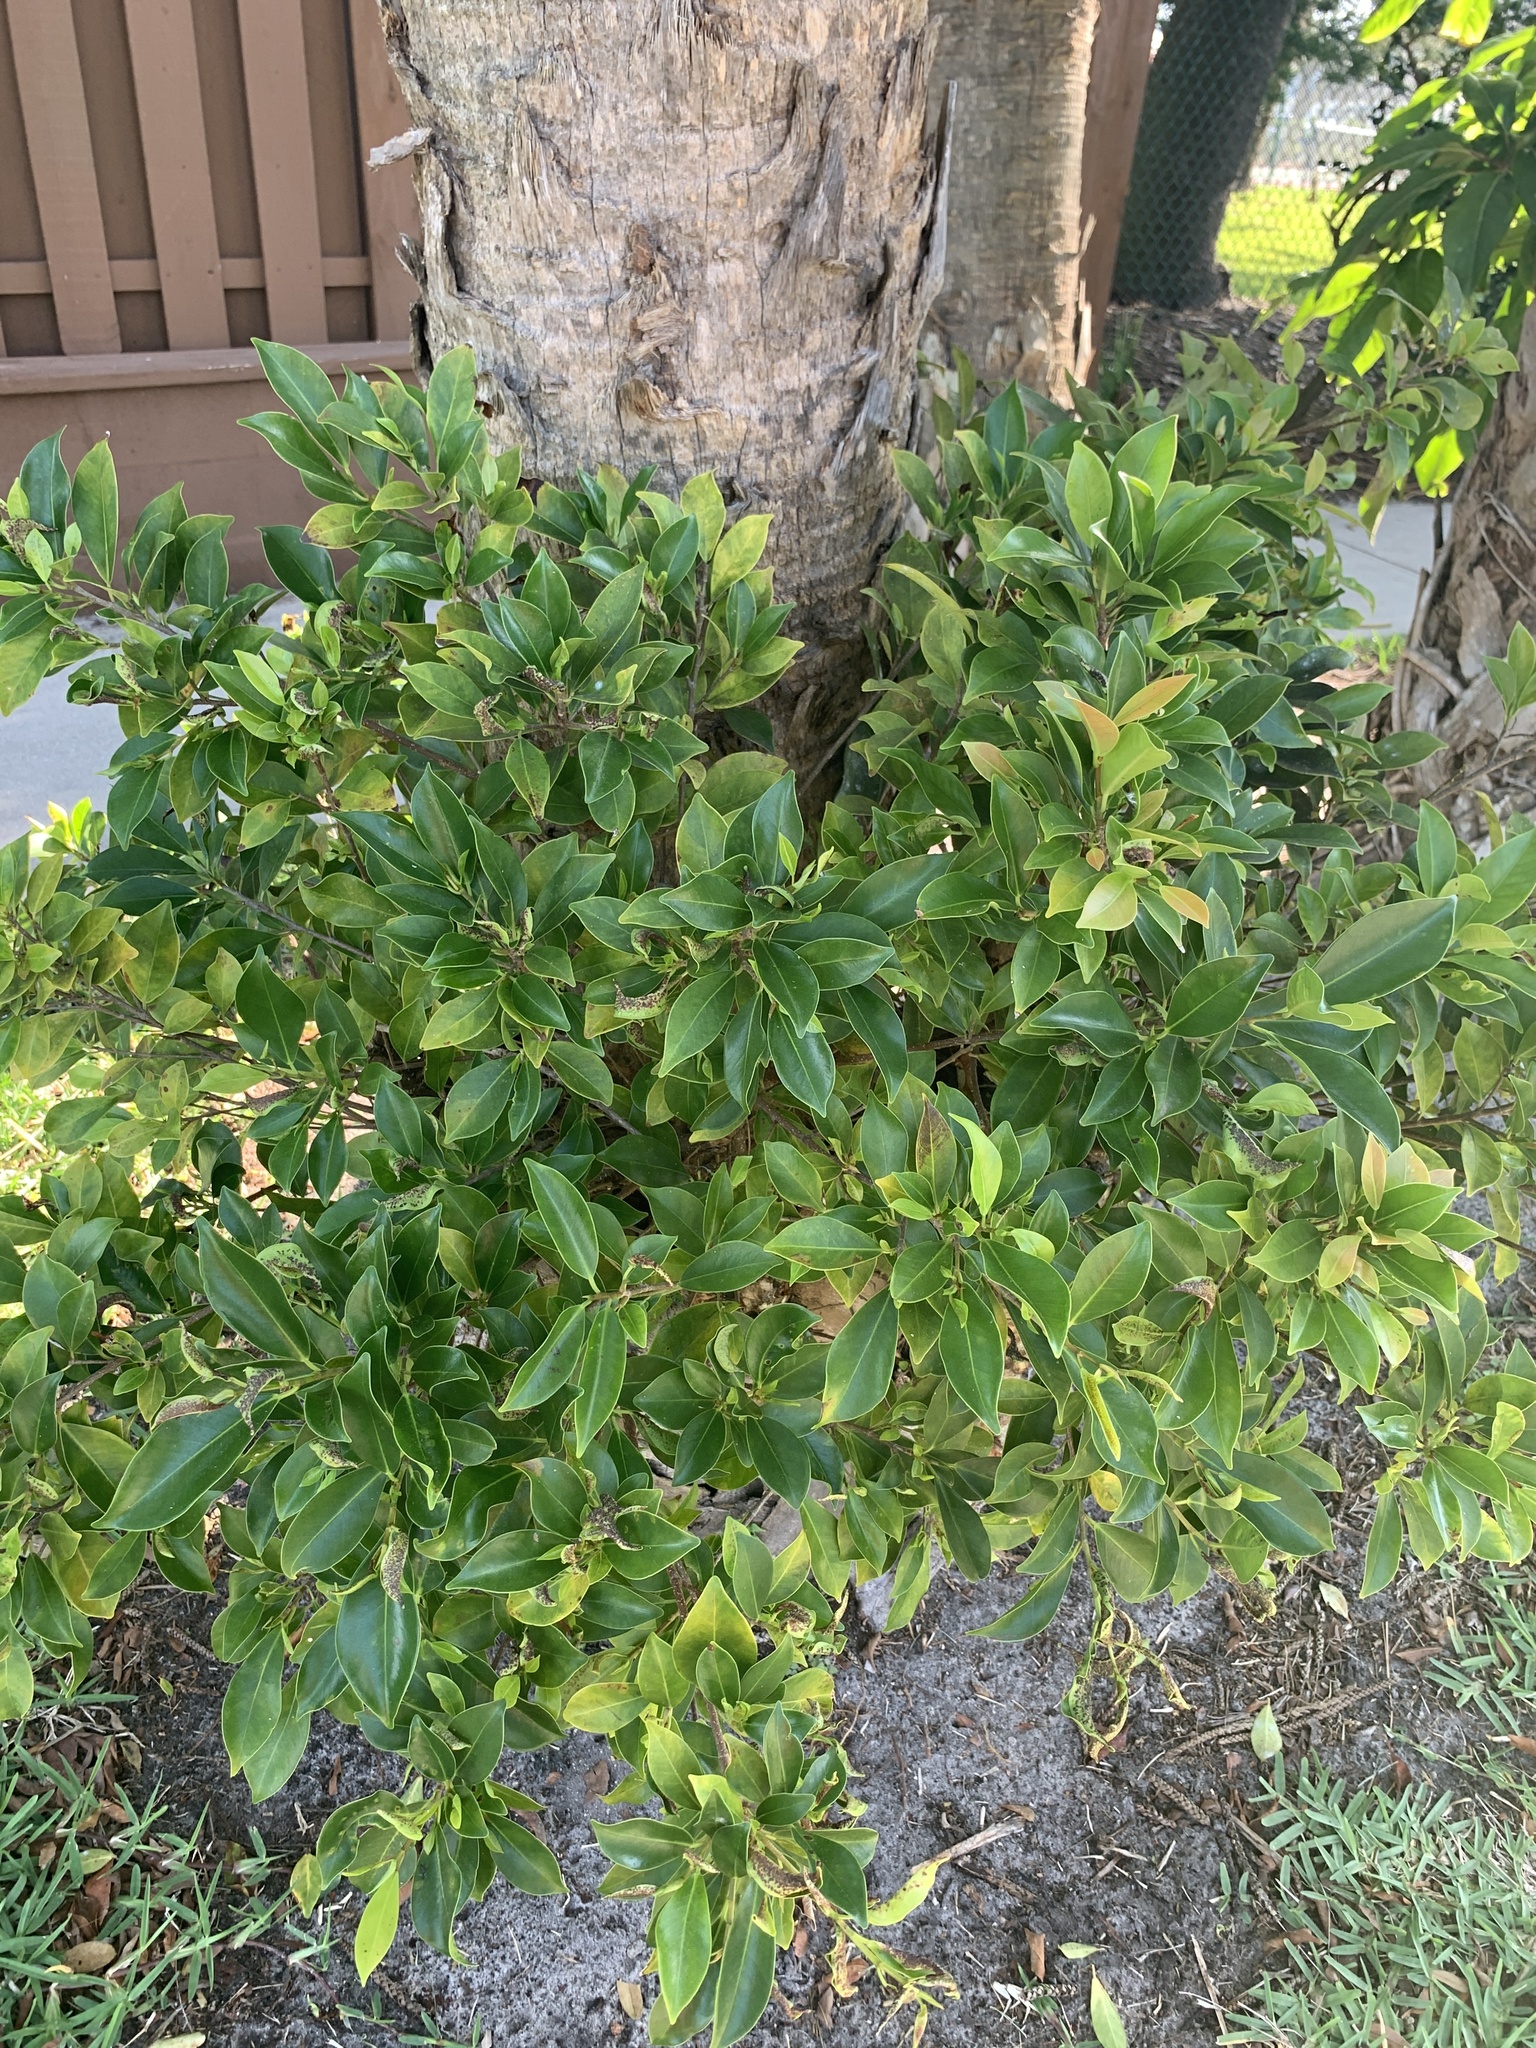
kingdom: Plantae
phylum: Tracheophyta
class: Magnoliopsida
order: Rosales
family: Moraceae
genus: Ficus
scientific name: Ficus microcarpa
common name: Chinese banyan
